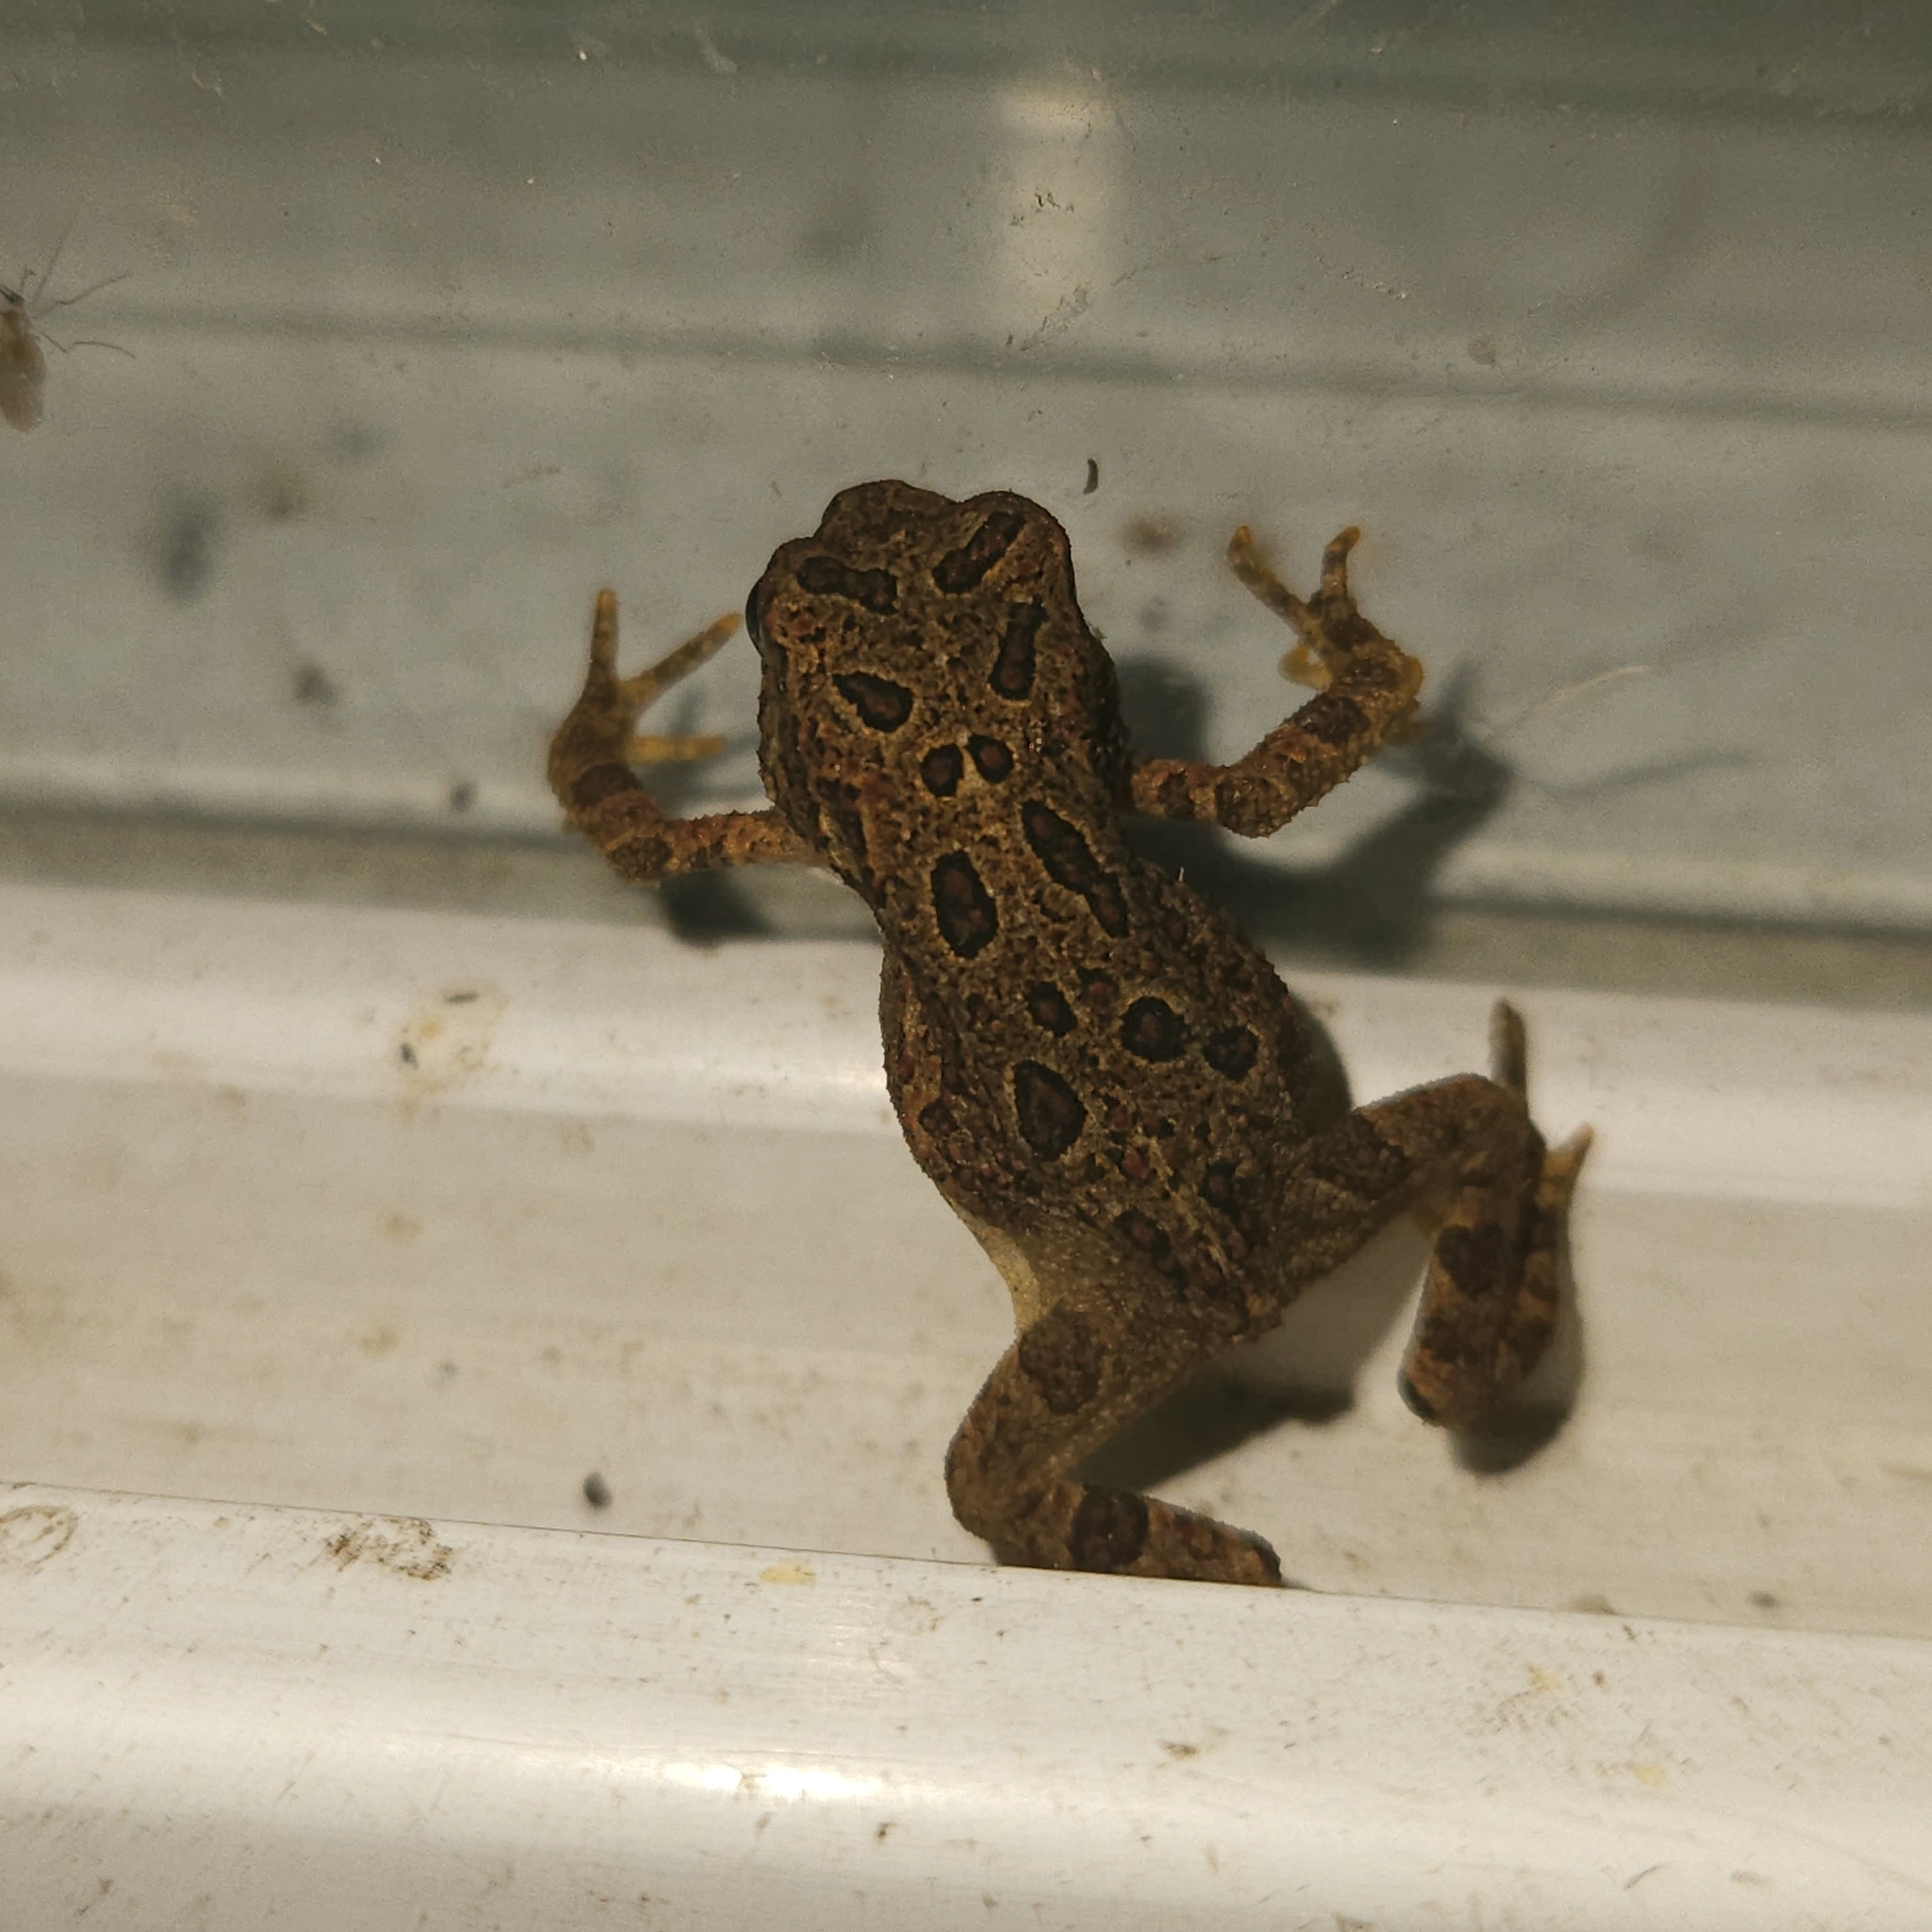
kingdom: Animalia
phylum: Chordata
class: Amphibia
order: Anura
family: Bufonidae
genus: Anaxyrus
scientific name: Anaxyrus americanus
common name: American toad
